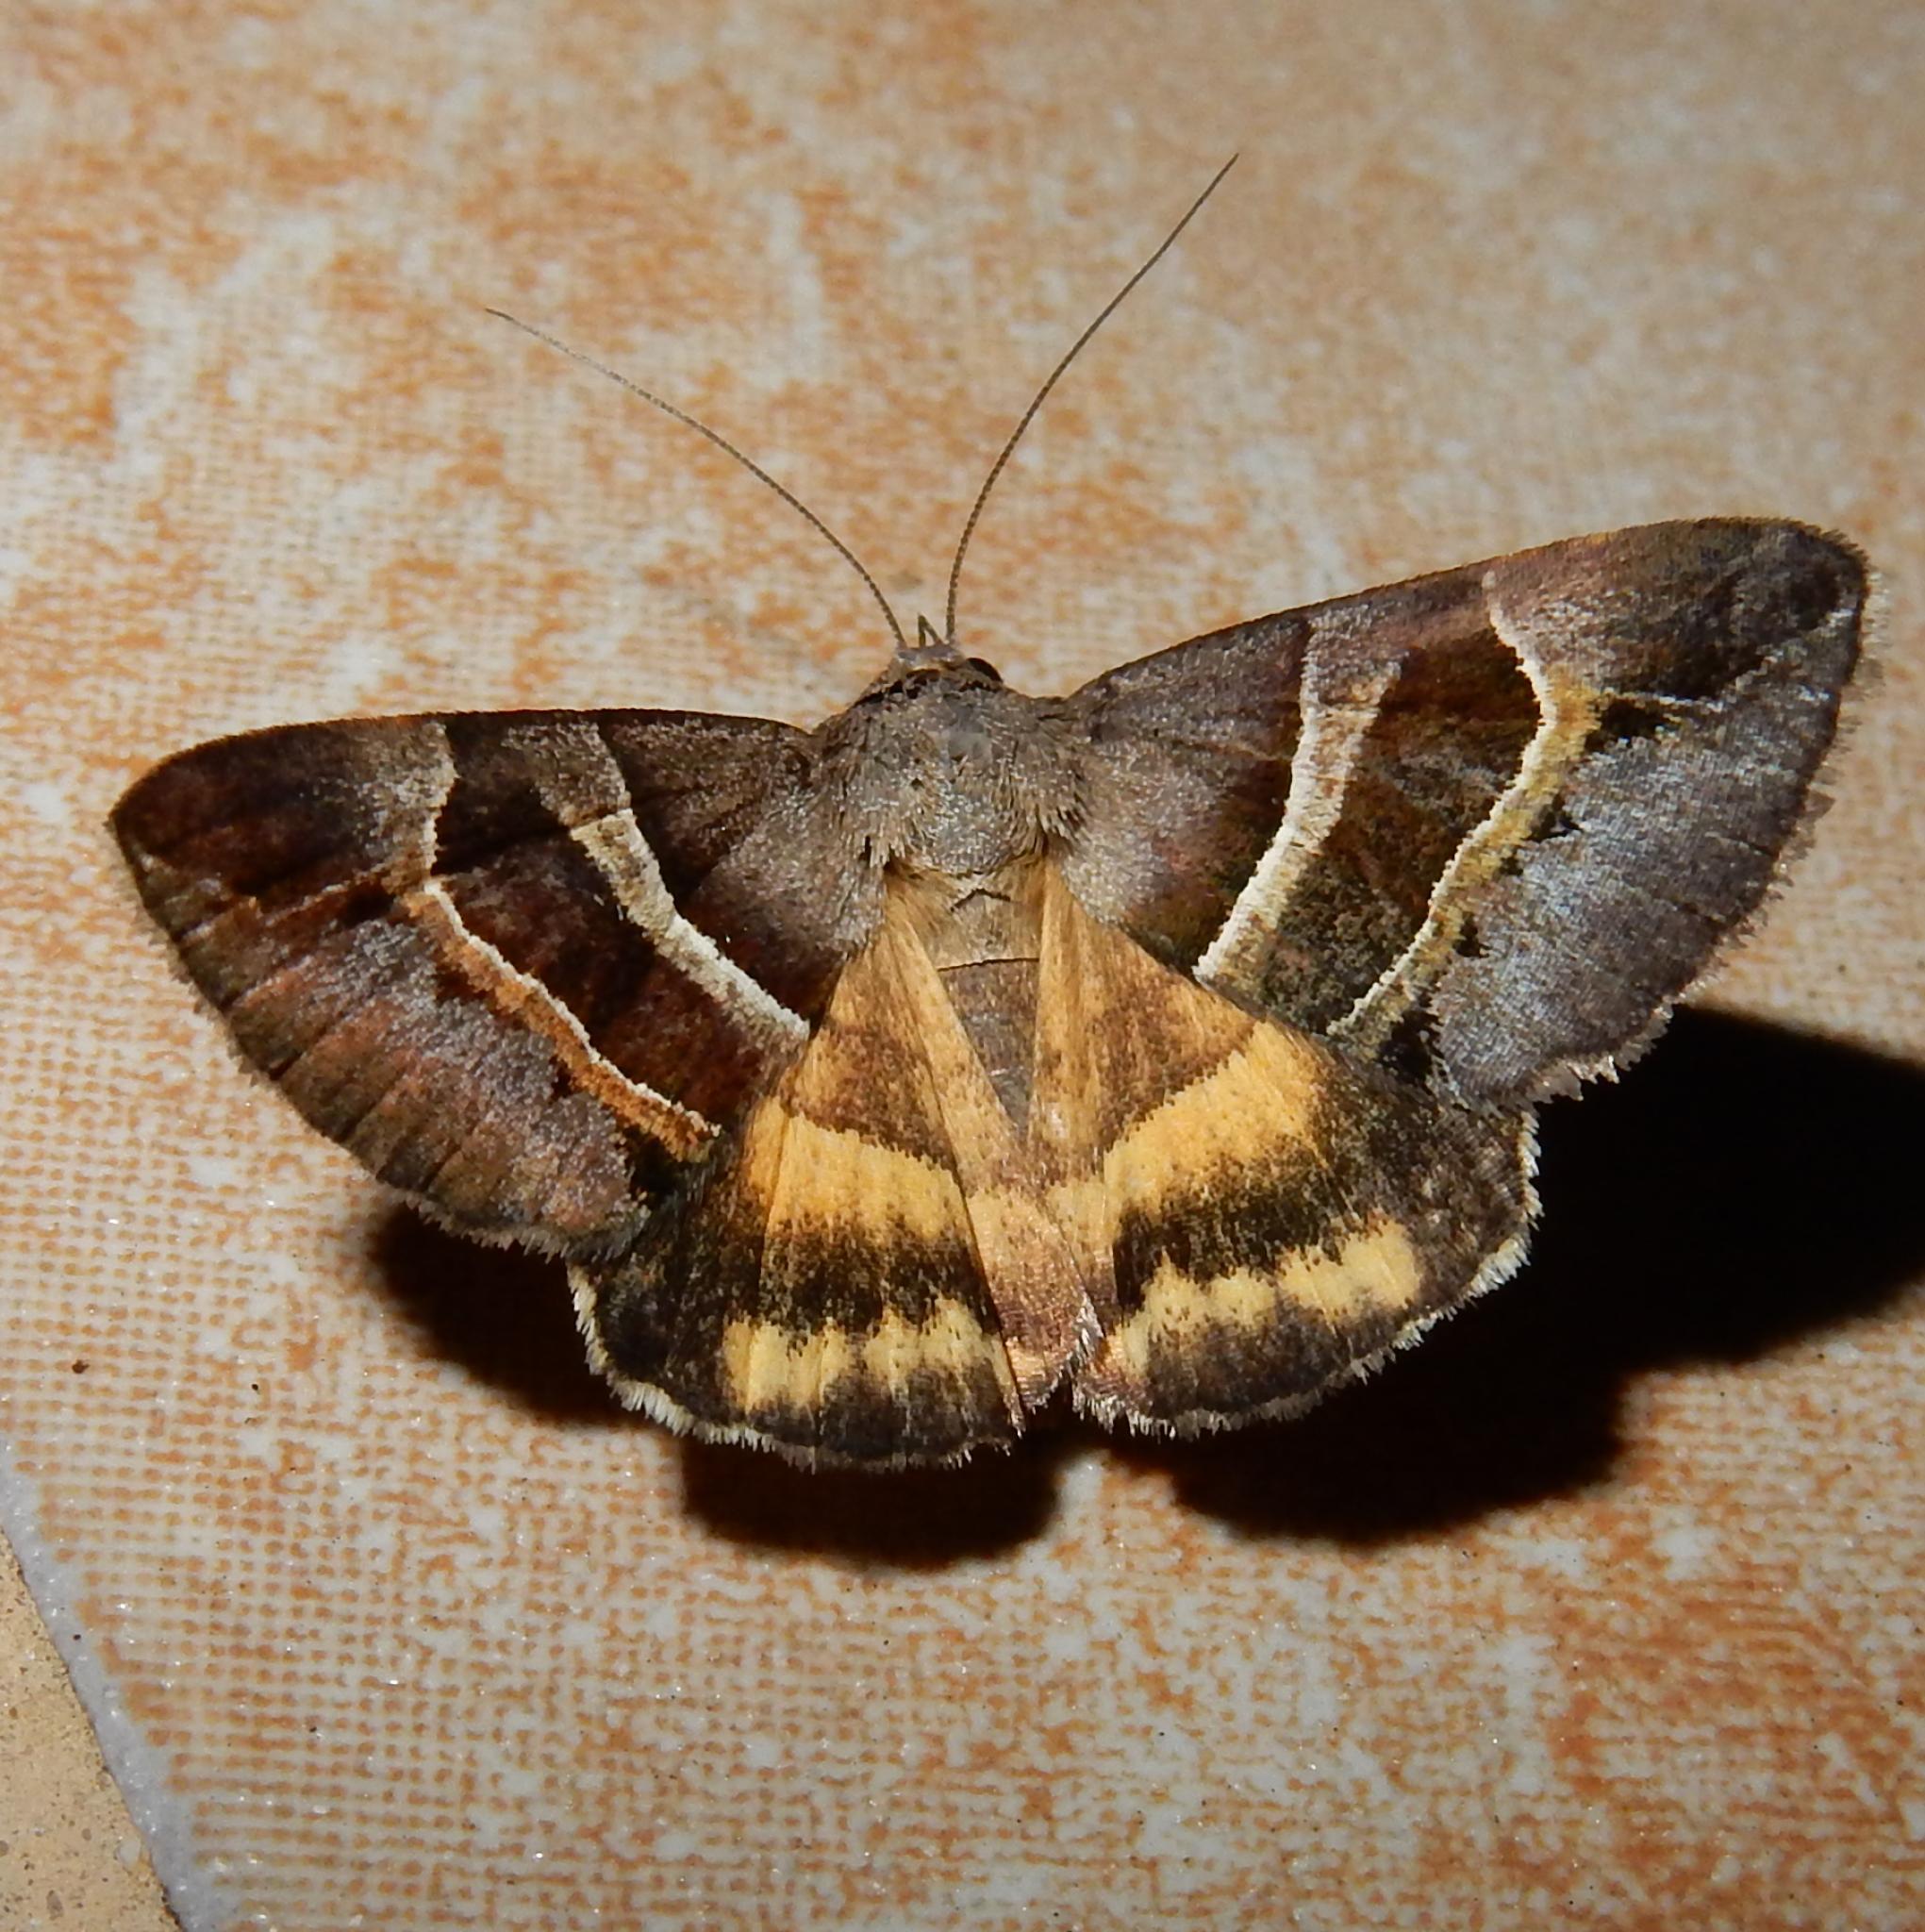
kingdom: Animalia
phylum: Arthropoda
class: Insecta
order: Lepidoptera
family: Erebidae
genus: Grammodes
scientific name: Grammodes euclidioides
